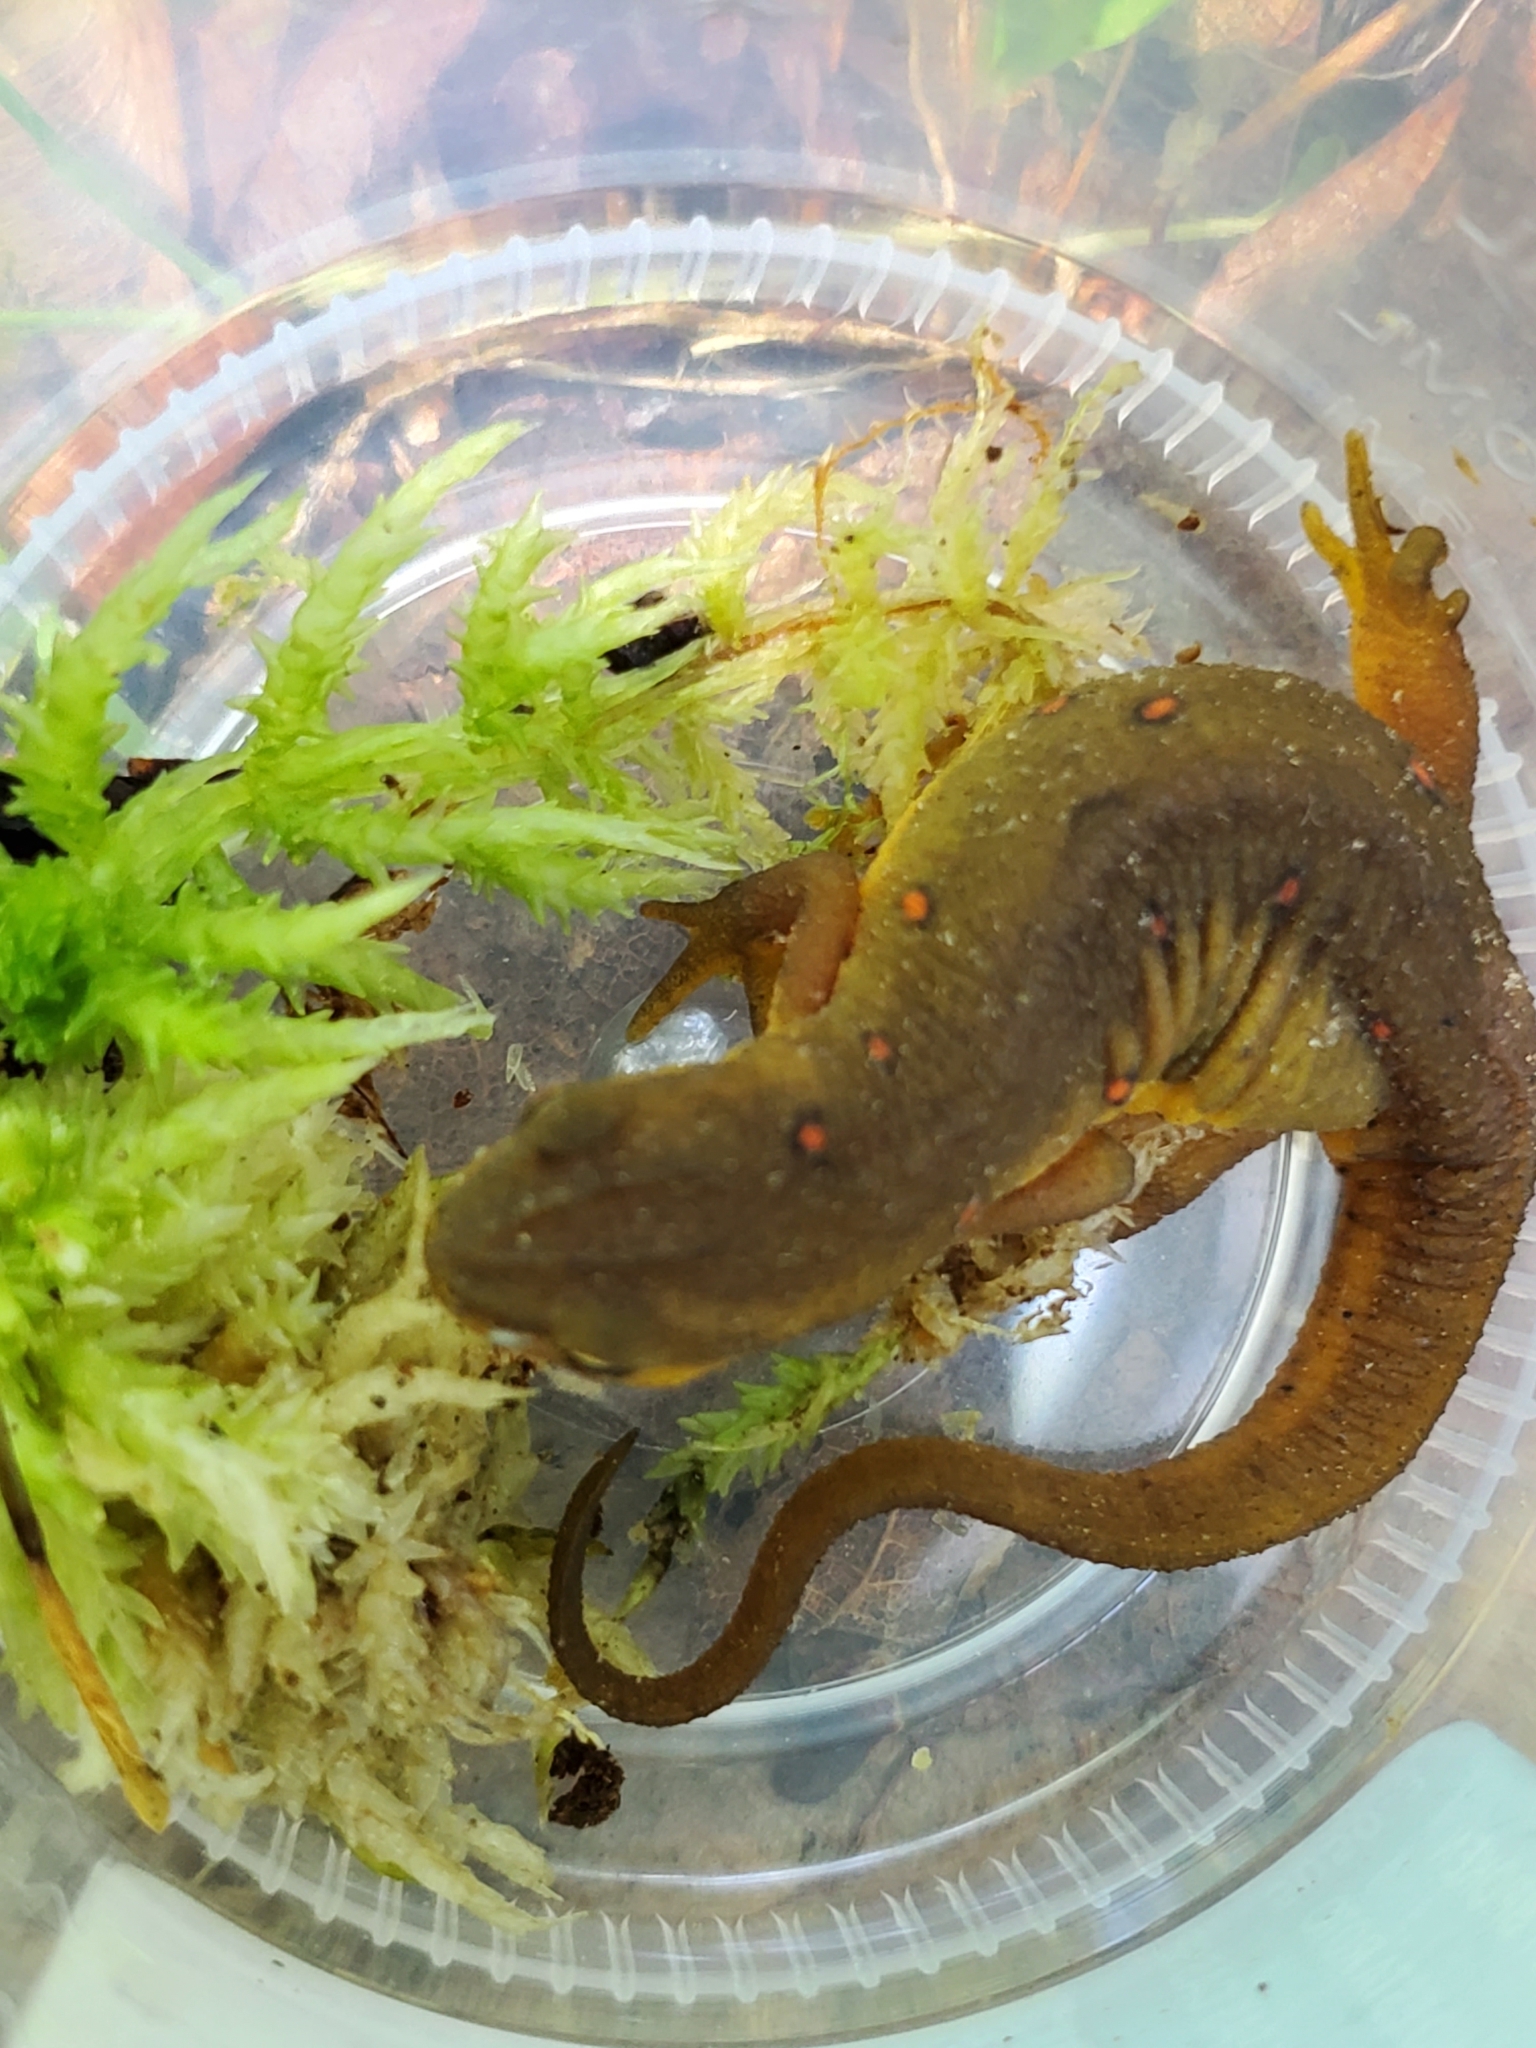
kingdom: Animalia
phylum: Chordata
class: Amphibia
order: Caudata
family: Salamandridae
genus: Notophthalmus
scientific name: Notophthalmus viridescens
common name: Eastern newt
